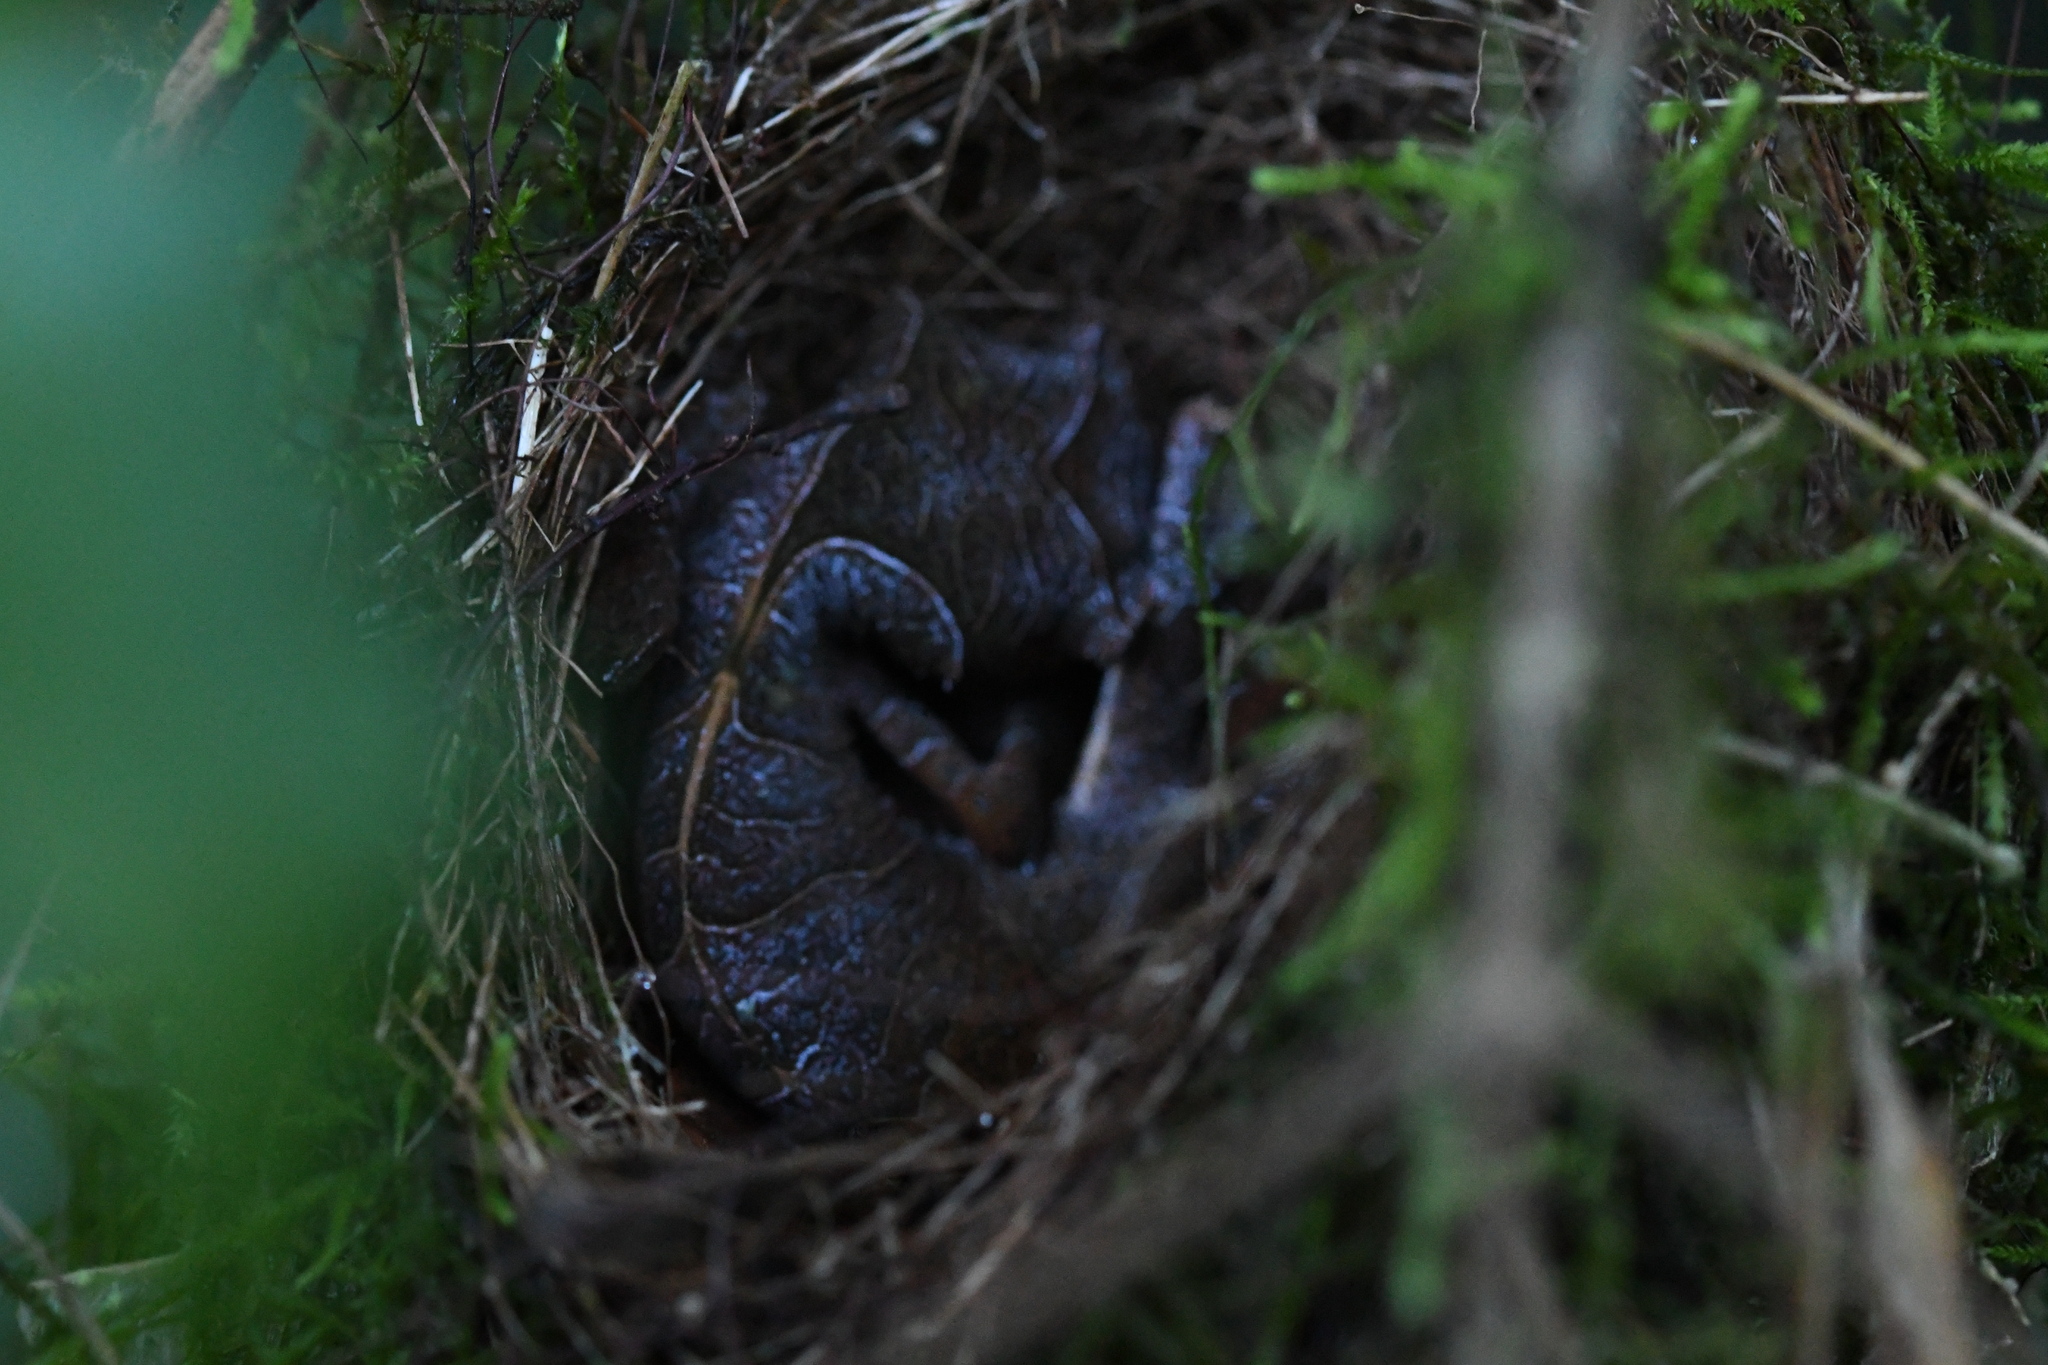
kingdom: Animalia
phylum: Chordata
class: Squamata
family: Gekkonidae
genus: Uroplatus
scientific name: Uroplatus phantasticus
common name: Phantastic leaf-tailed gecko
